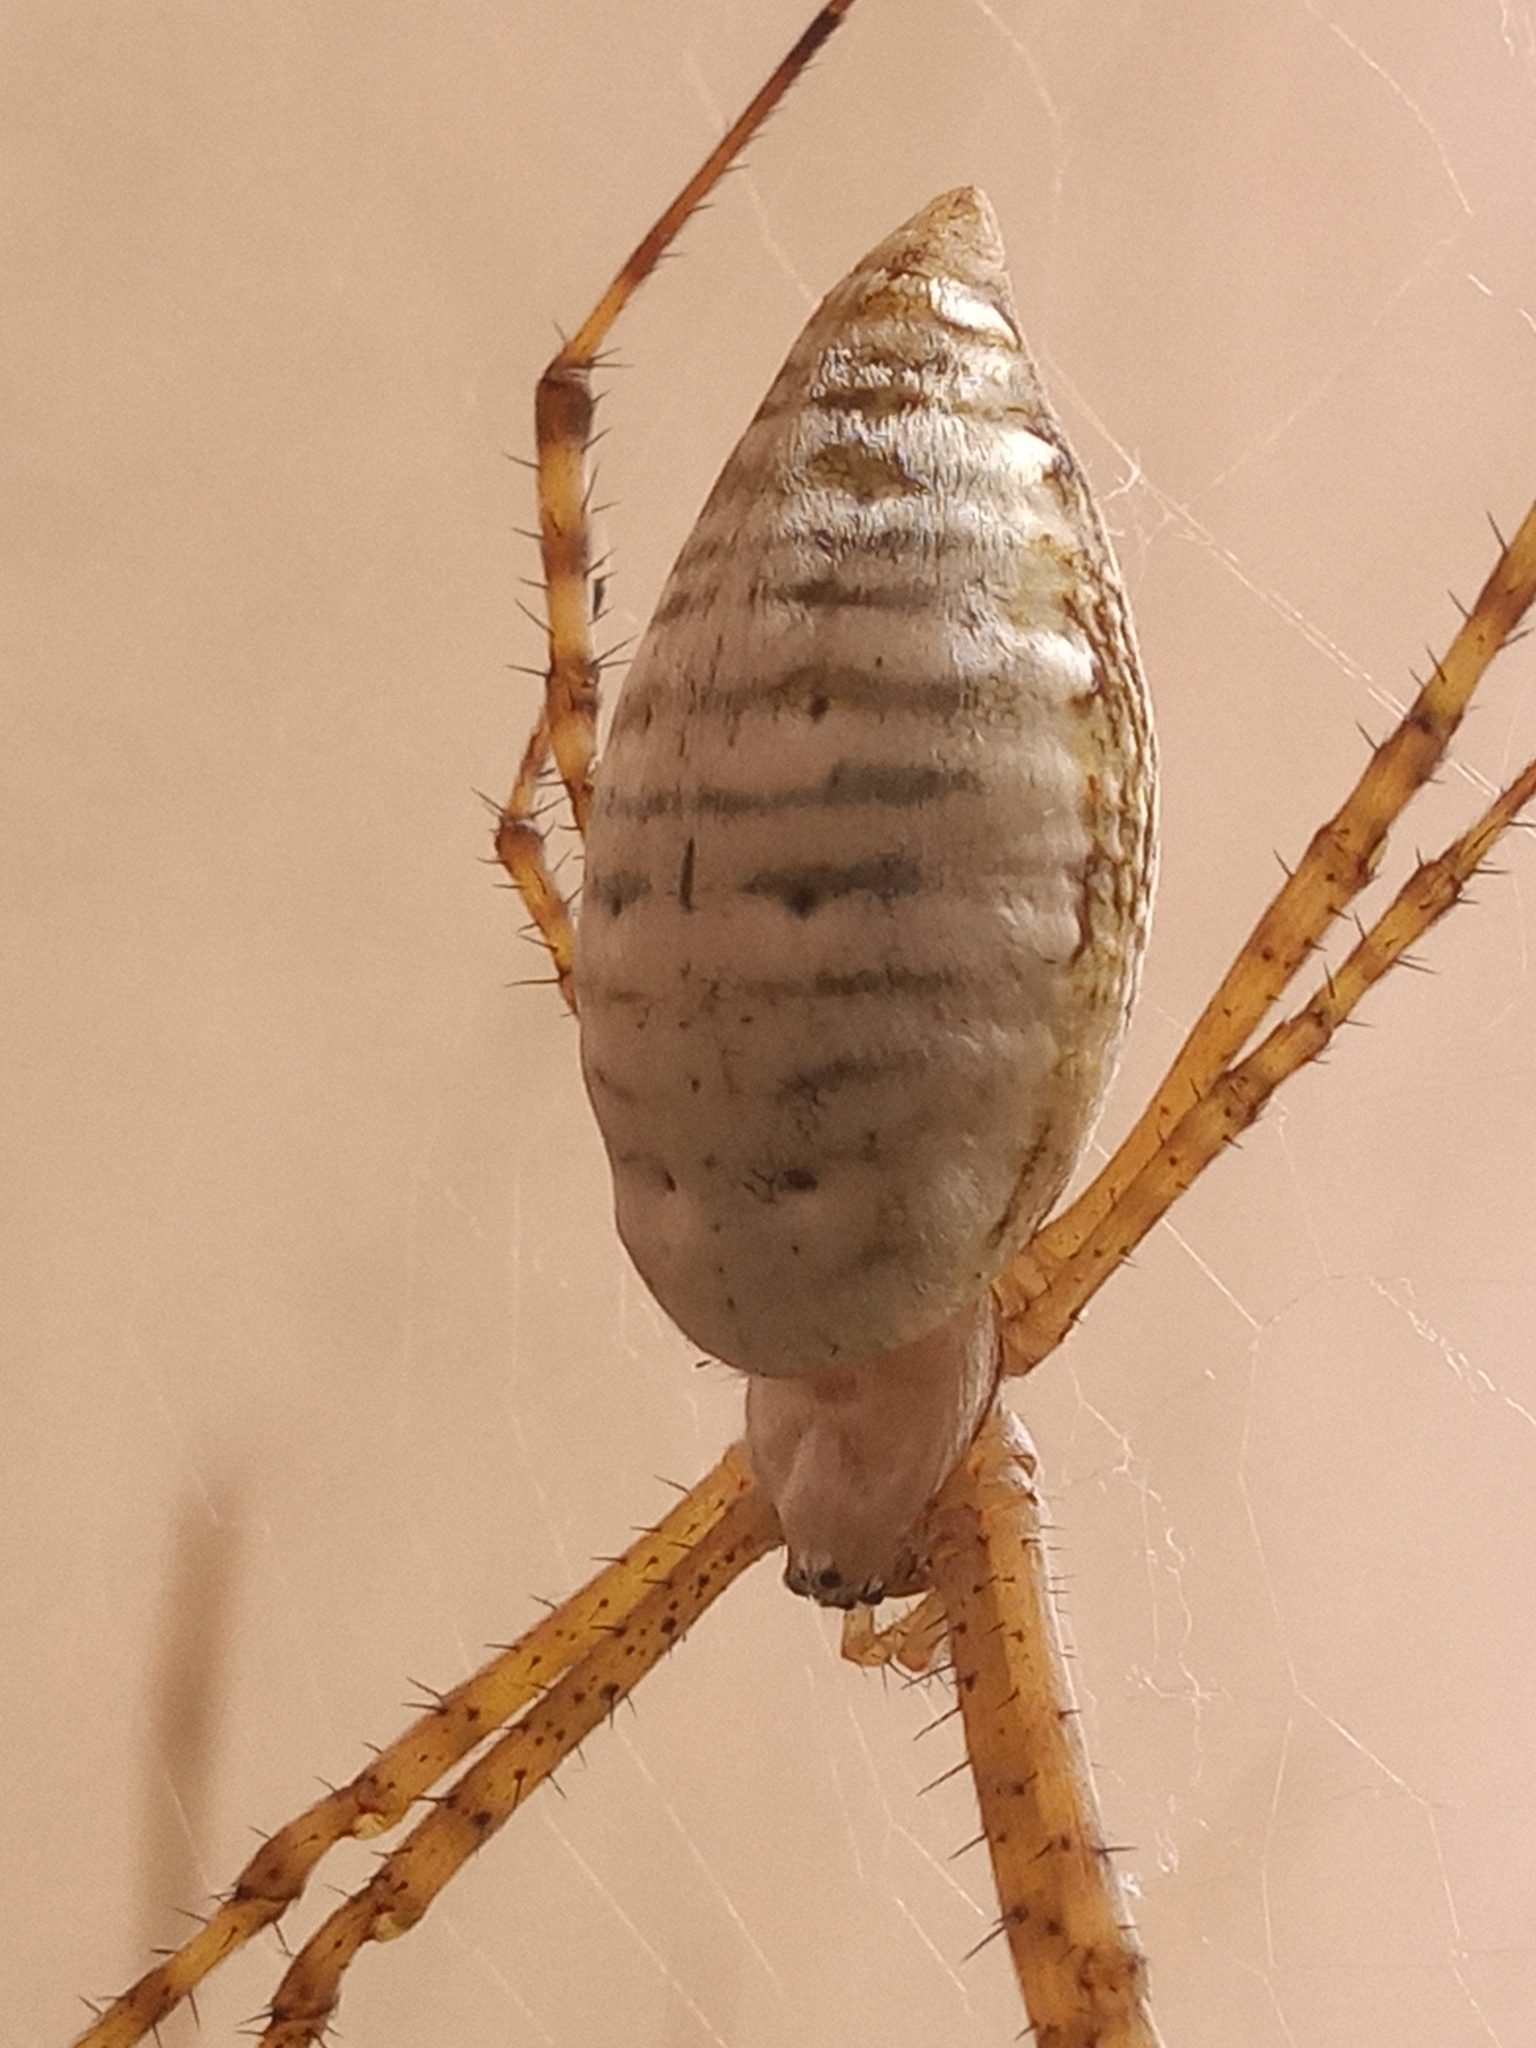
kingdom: Animalia
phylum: Arthropoda
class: Arachnida
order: Araneae
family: Araneidae
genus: Argiope
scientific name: Argiope trifasciata
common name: Banded garden spider
